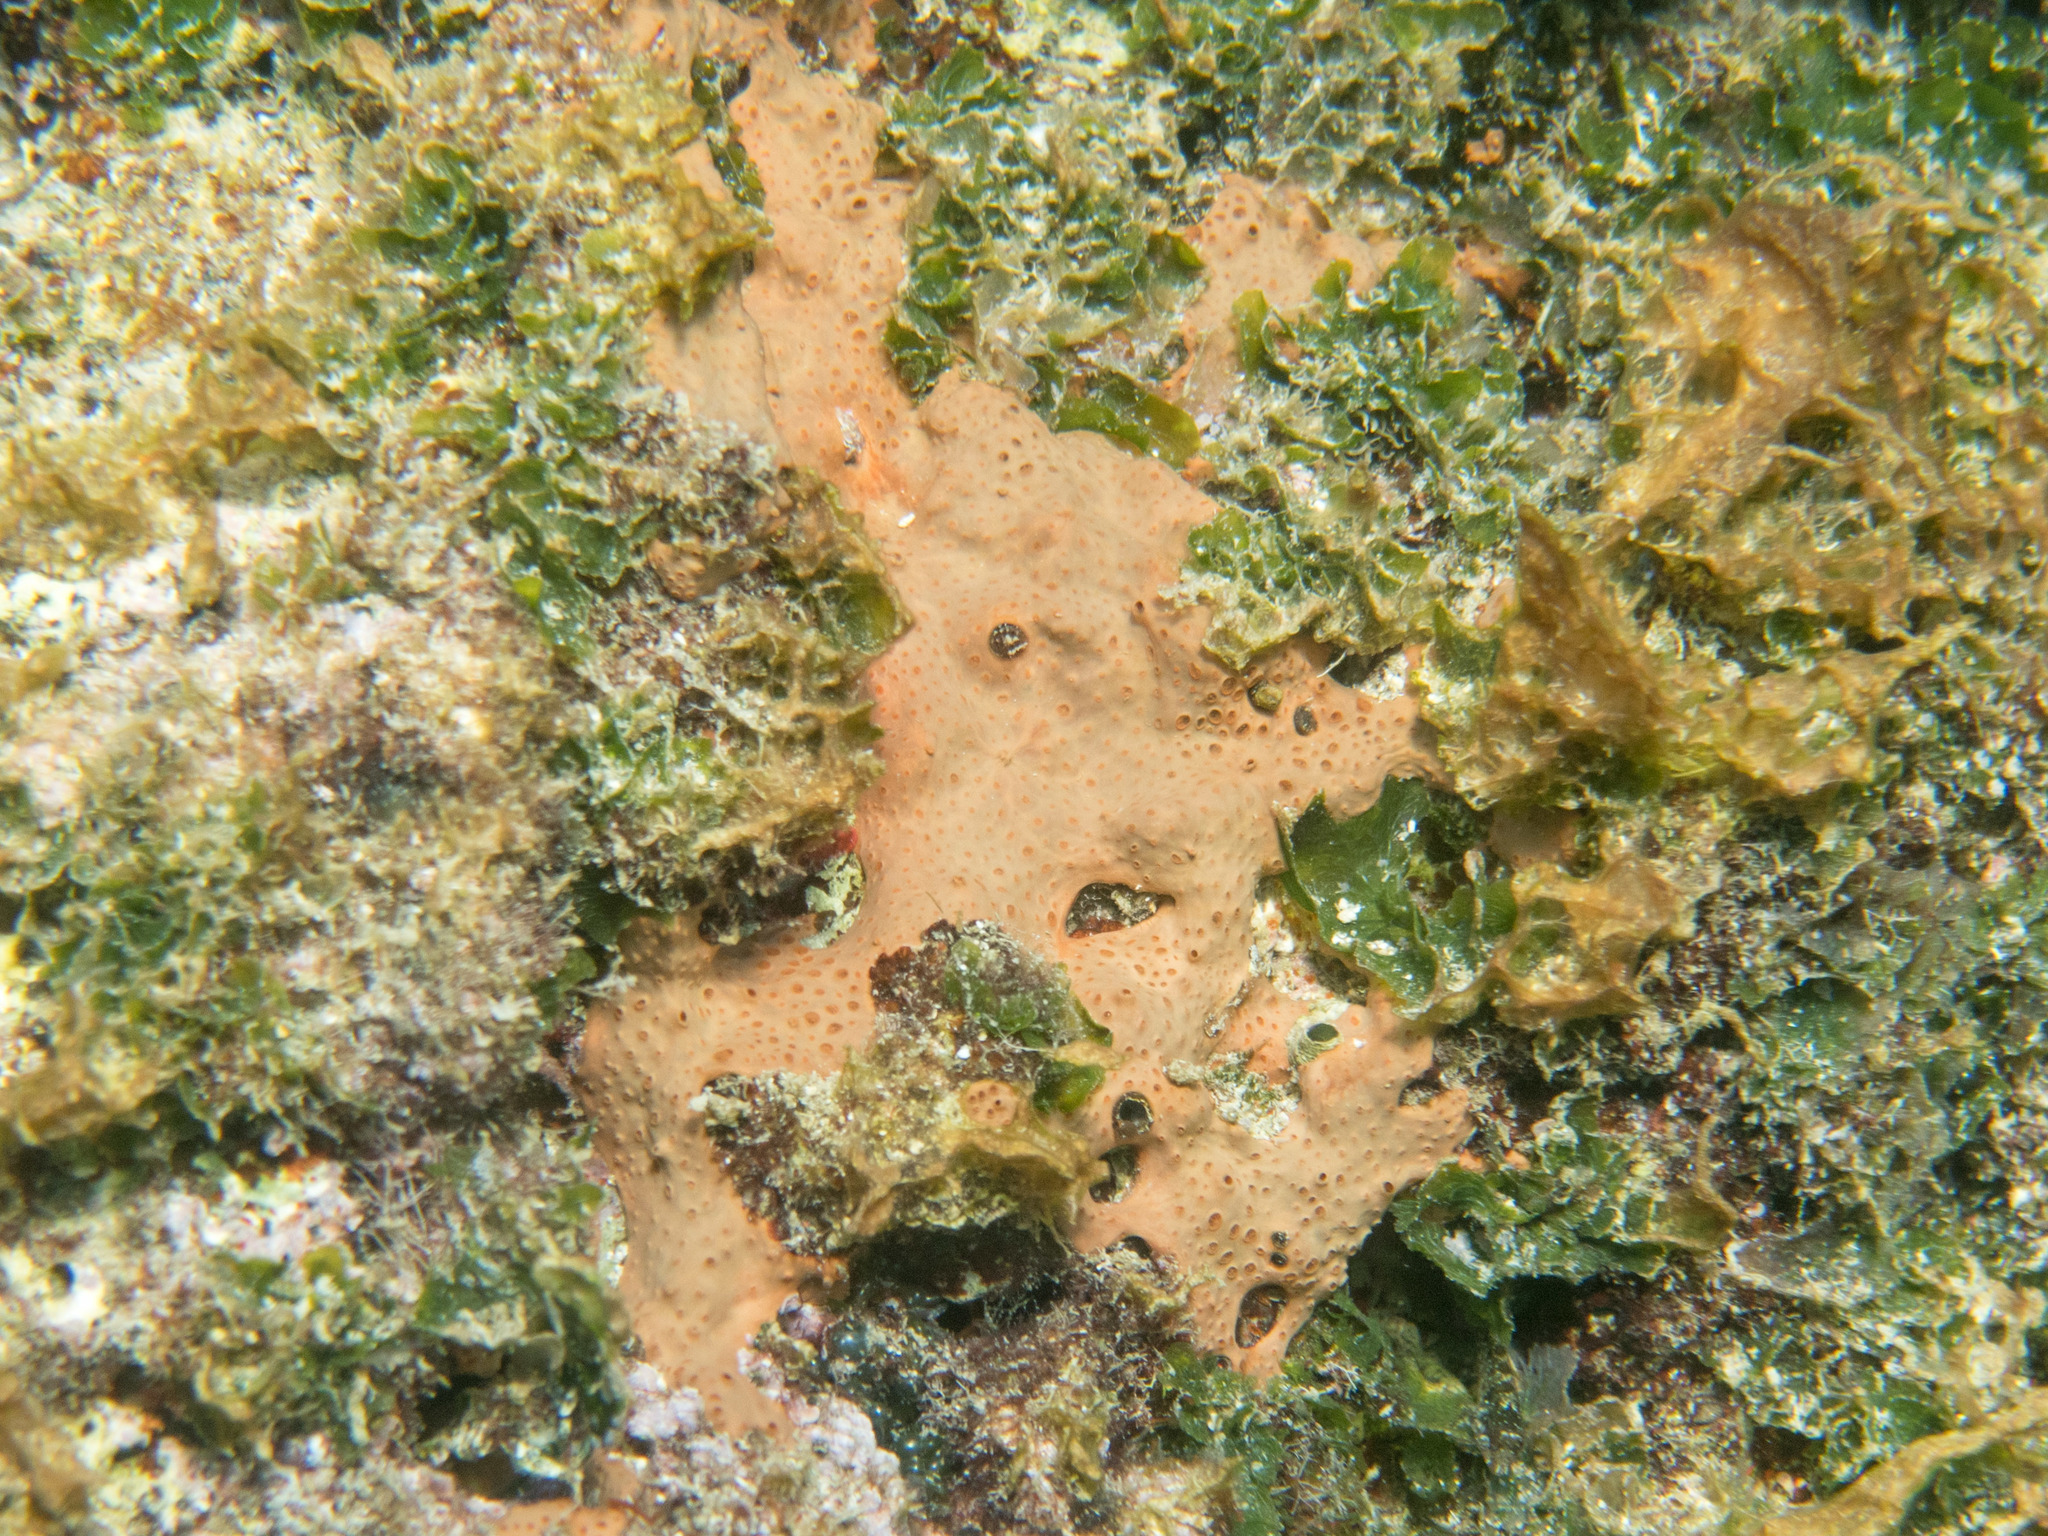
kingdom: Animalia
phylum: Porifera
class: Demospongiae
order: Poecilosclerida
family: Hymedesmiidae
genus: Hemimycale
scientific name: Hemimycale columella
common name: Crater sponge
